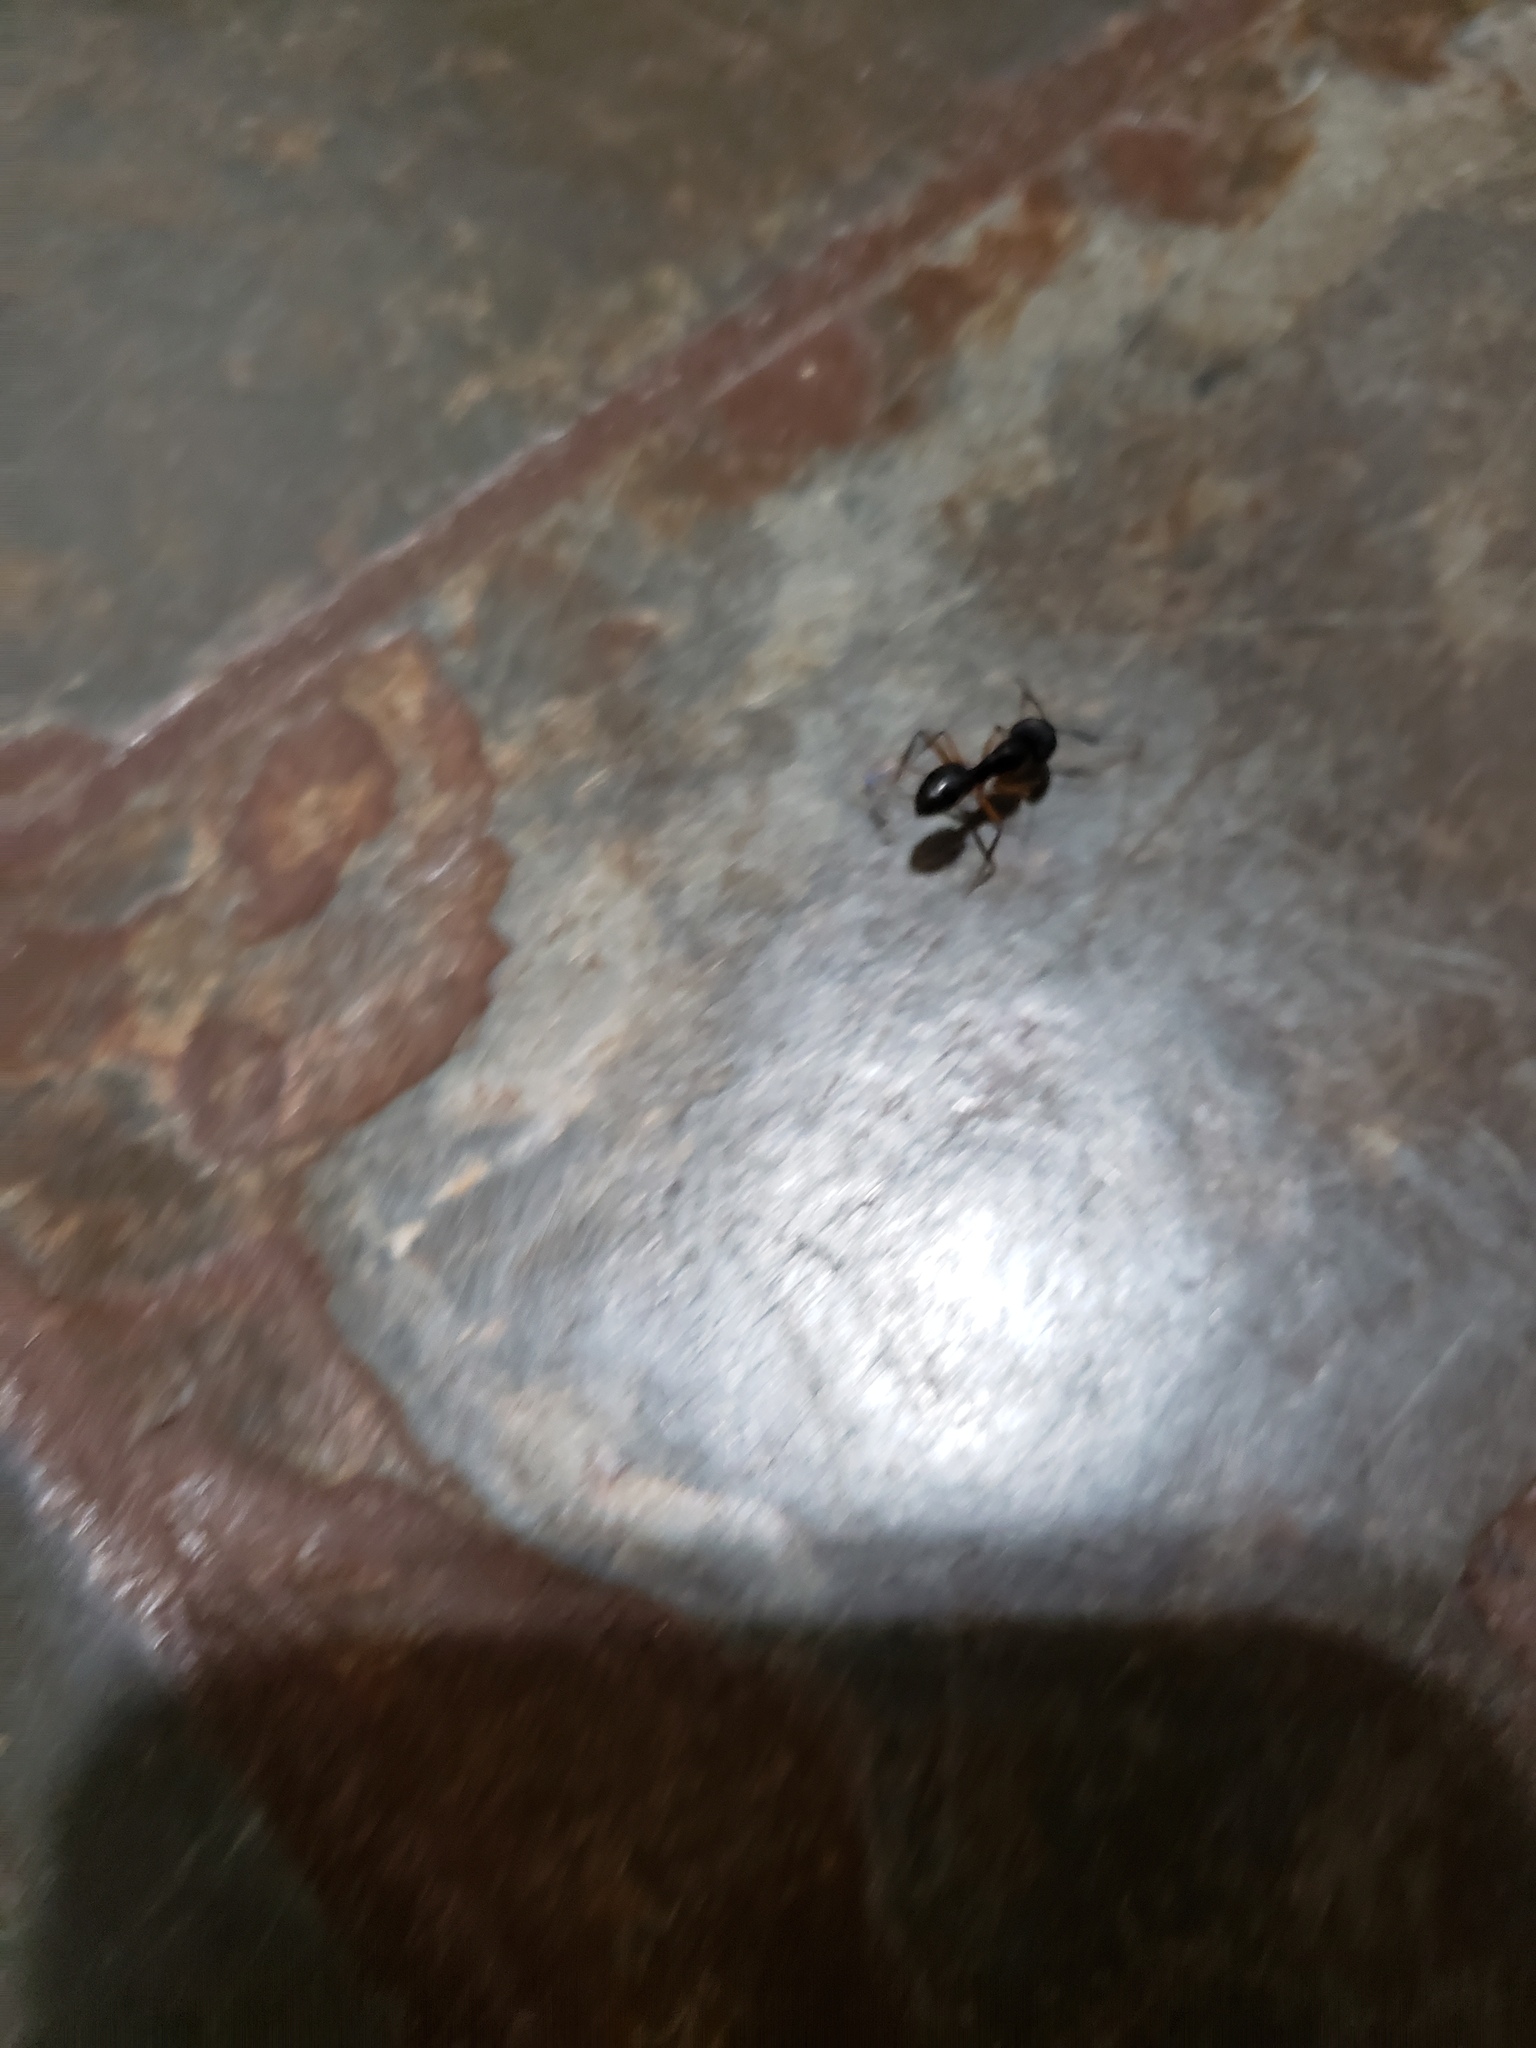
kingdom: Animalia
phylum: Arthropoda
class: Insecta
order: Hymenoptera
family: Formicidae
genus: Camponotus
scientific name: Camponotus renggeri
